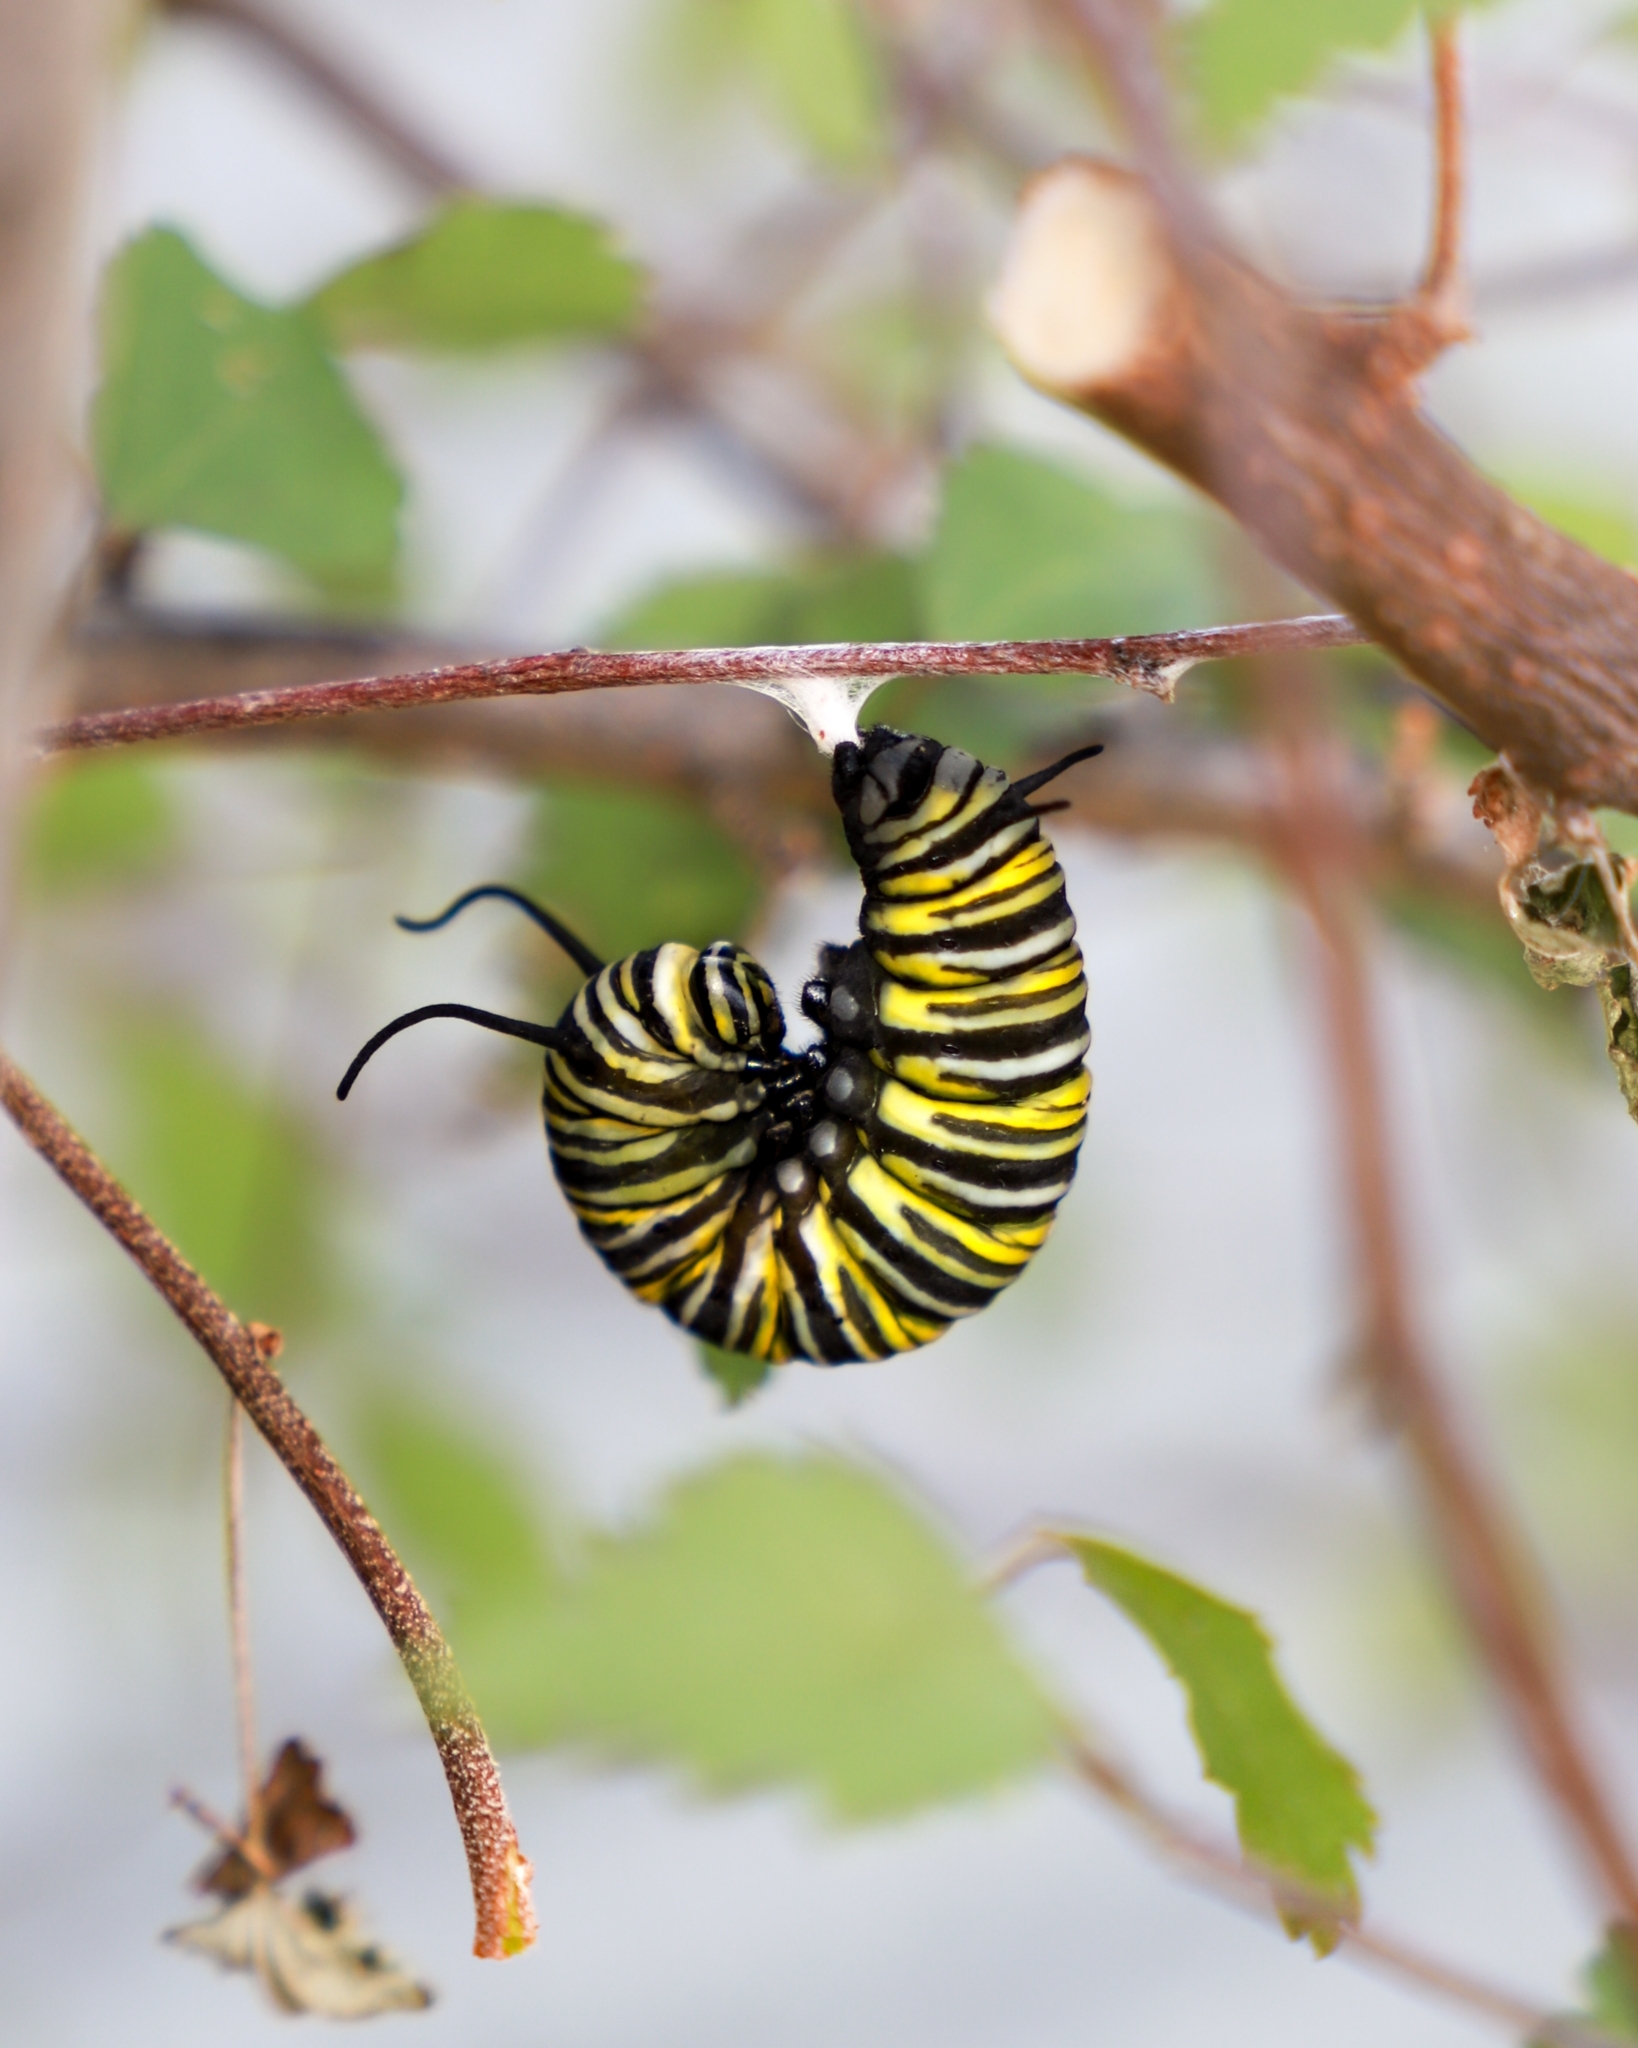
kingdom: Animalia
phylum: Arthropoda
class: Insecta
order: Lepidoptera
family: Nymphalidae
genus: Danaus
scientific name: Danaus plexippus
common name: Monarch
